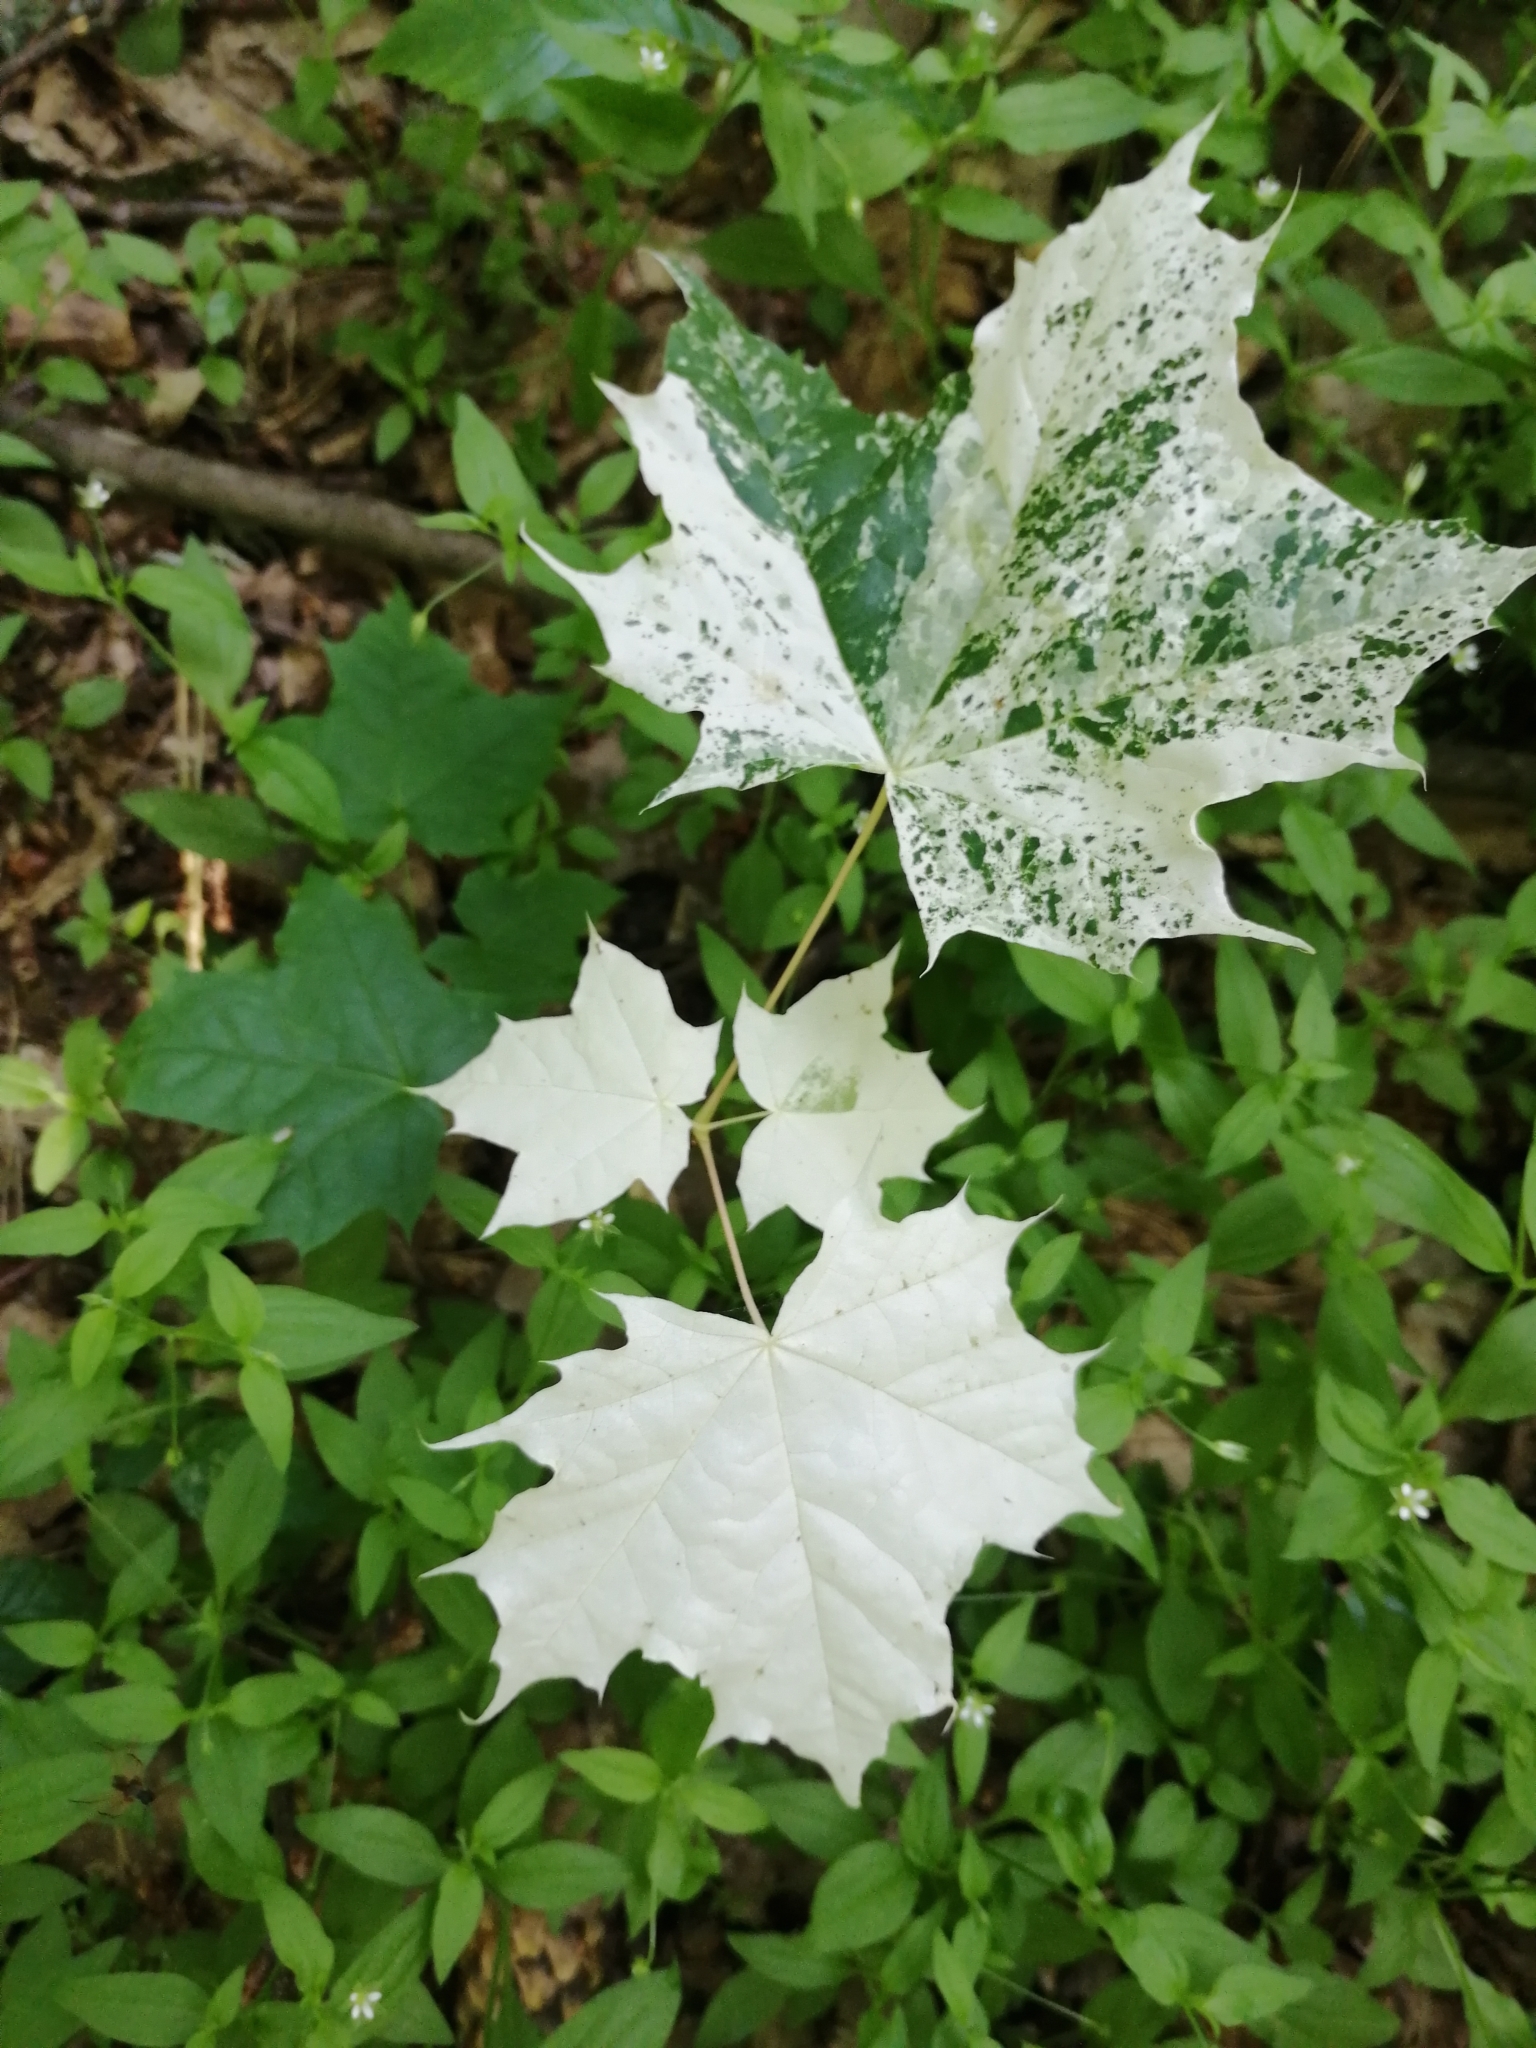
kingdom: Plantae
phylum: Tracheophyta
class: Magnoliopsida
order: Sapindales
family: Sapindaceae
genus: Acer
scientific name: Acer platanoides
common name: Norway maple
